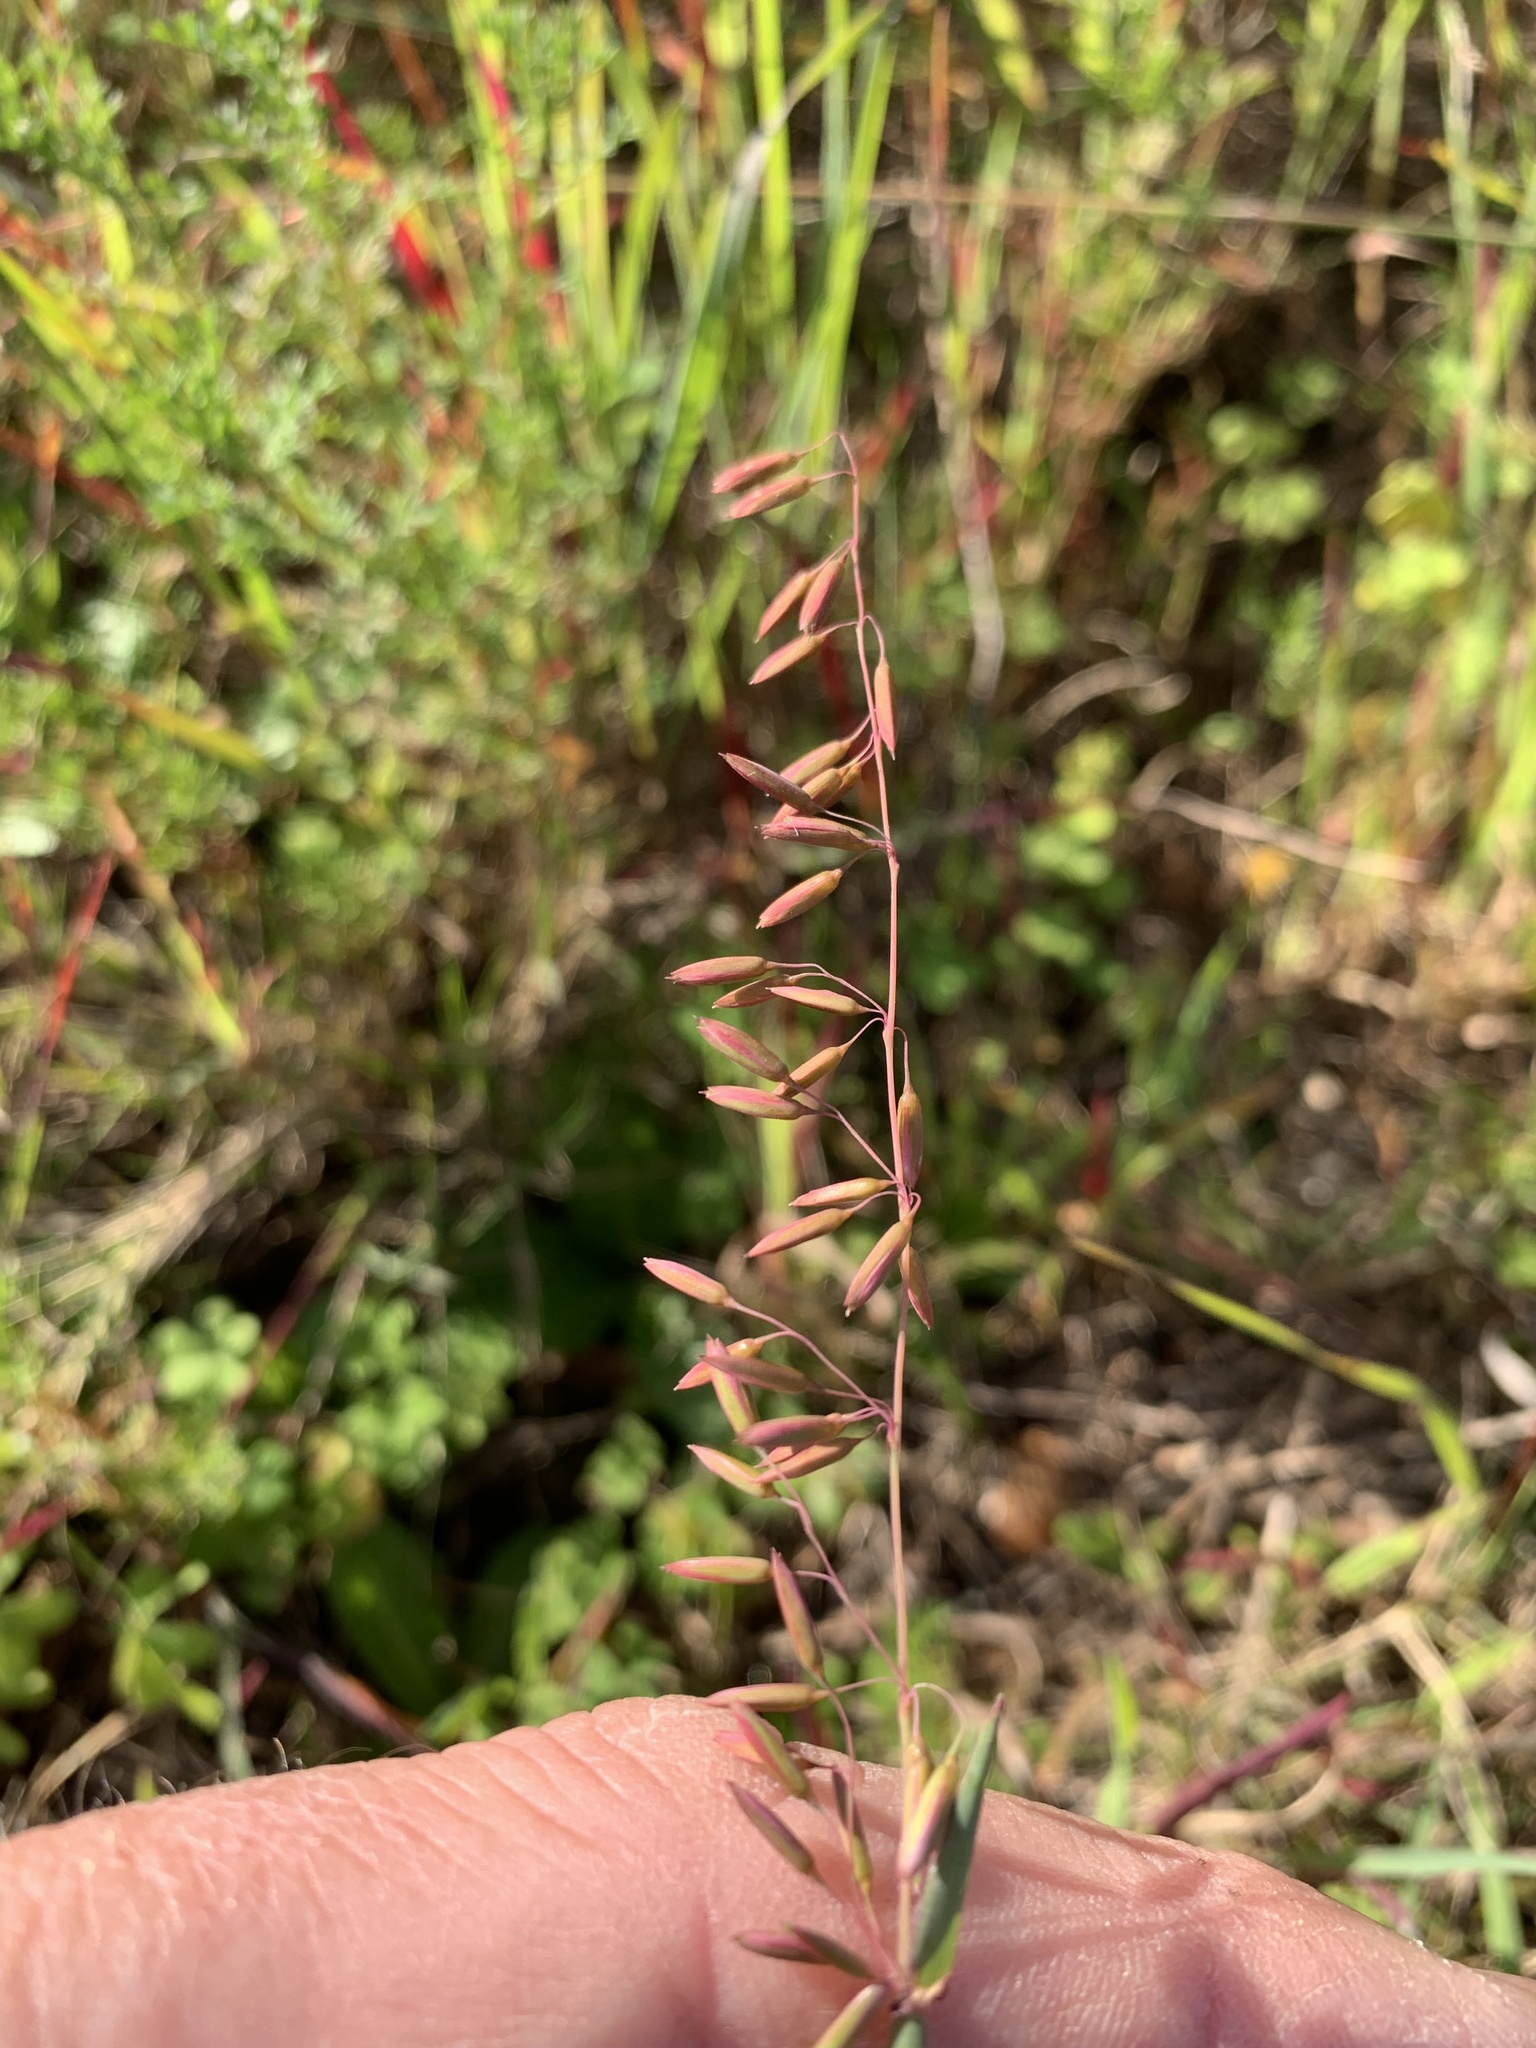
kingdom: Plantae
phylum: Tracheophyta
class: Liliopsida
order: Poales
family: Poaceae
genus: Ehrharta
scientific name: Ehrharta calycina
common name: Perennial veldtgrass
